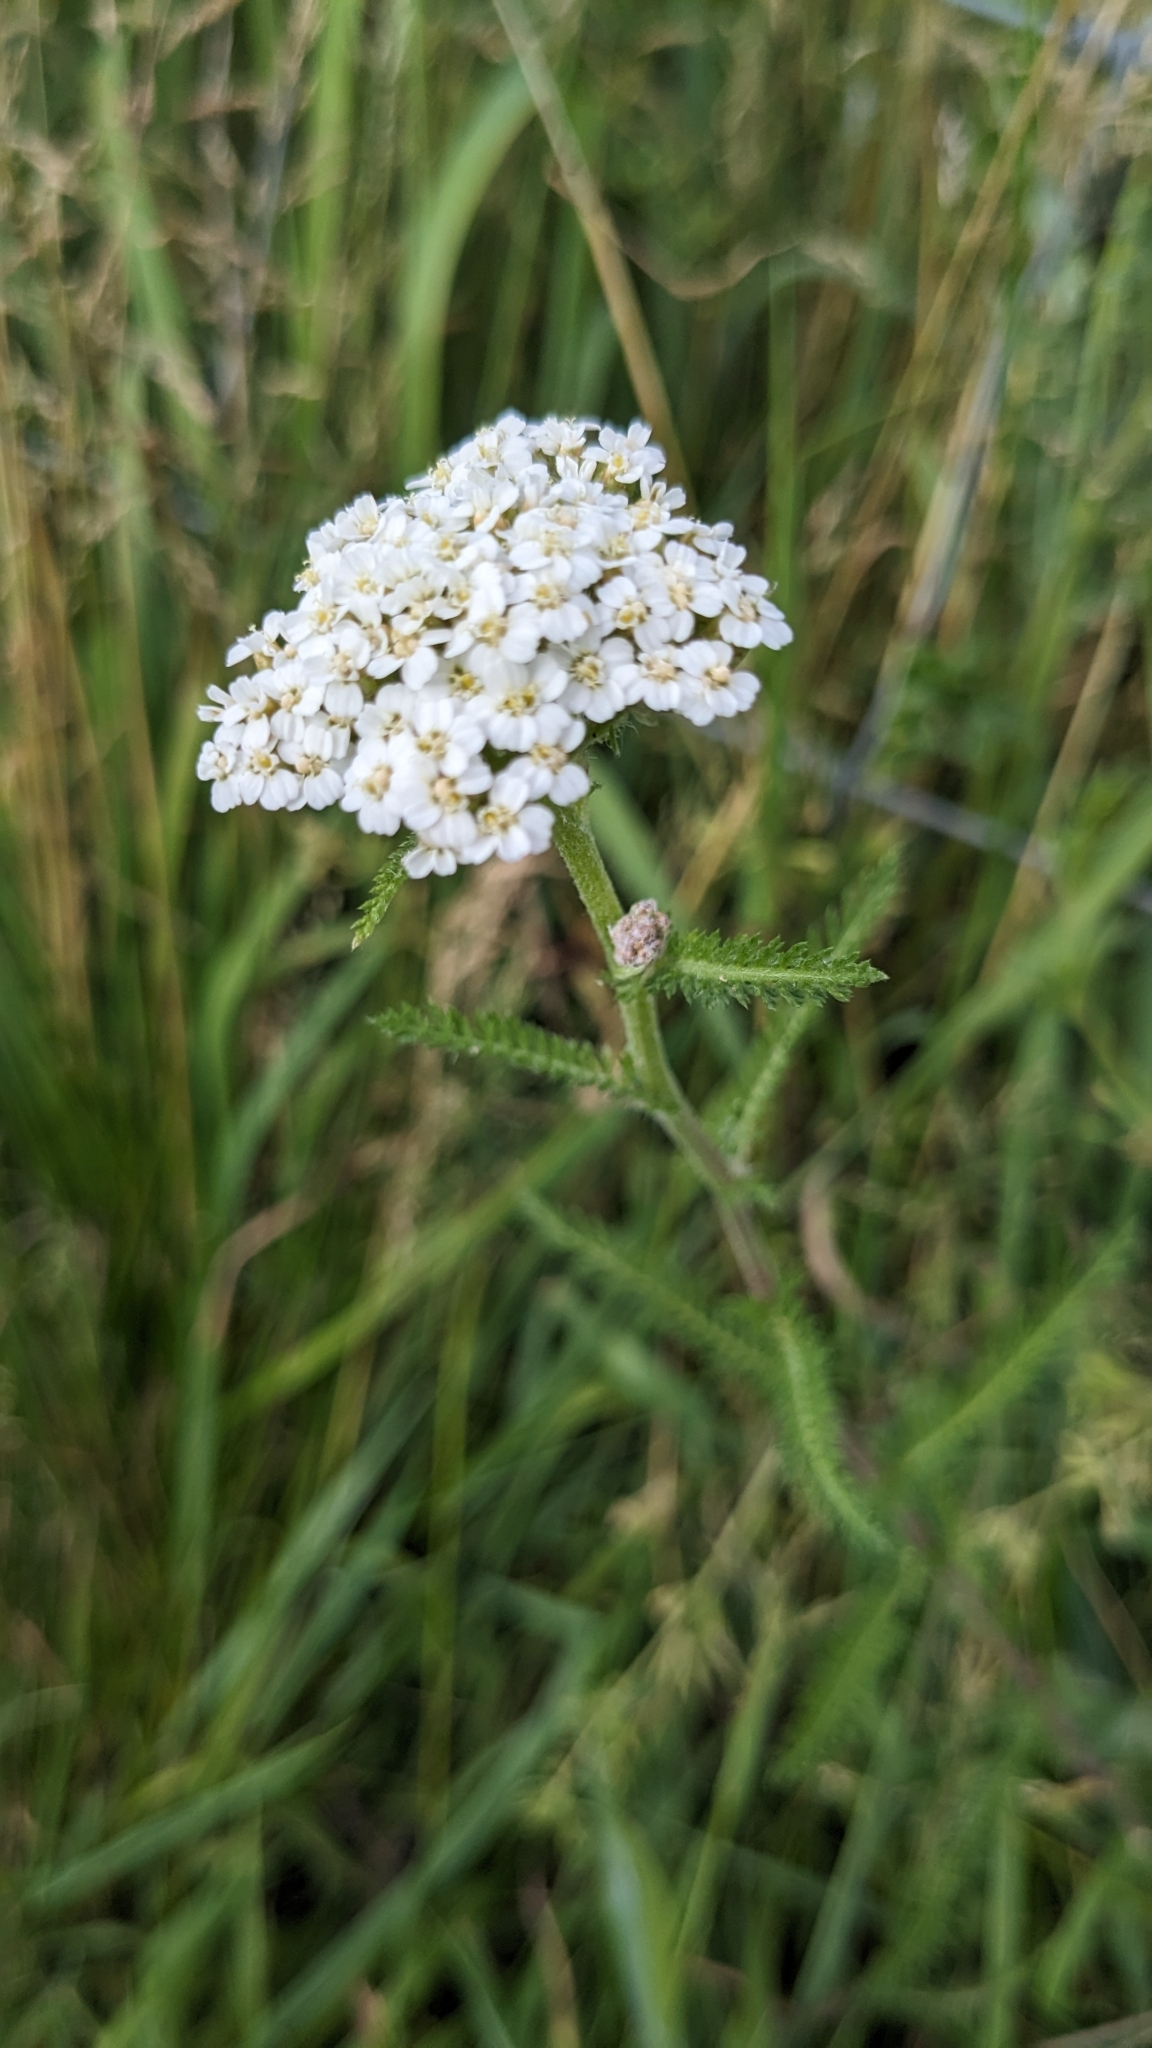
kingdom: Plantae
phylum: Tracheophyta
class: Magnoliopsida
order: Asterales
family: Asteraceae
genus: Achillea
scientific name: Achillea millefolium
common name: Yarrow
